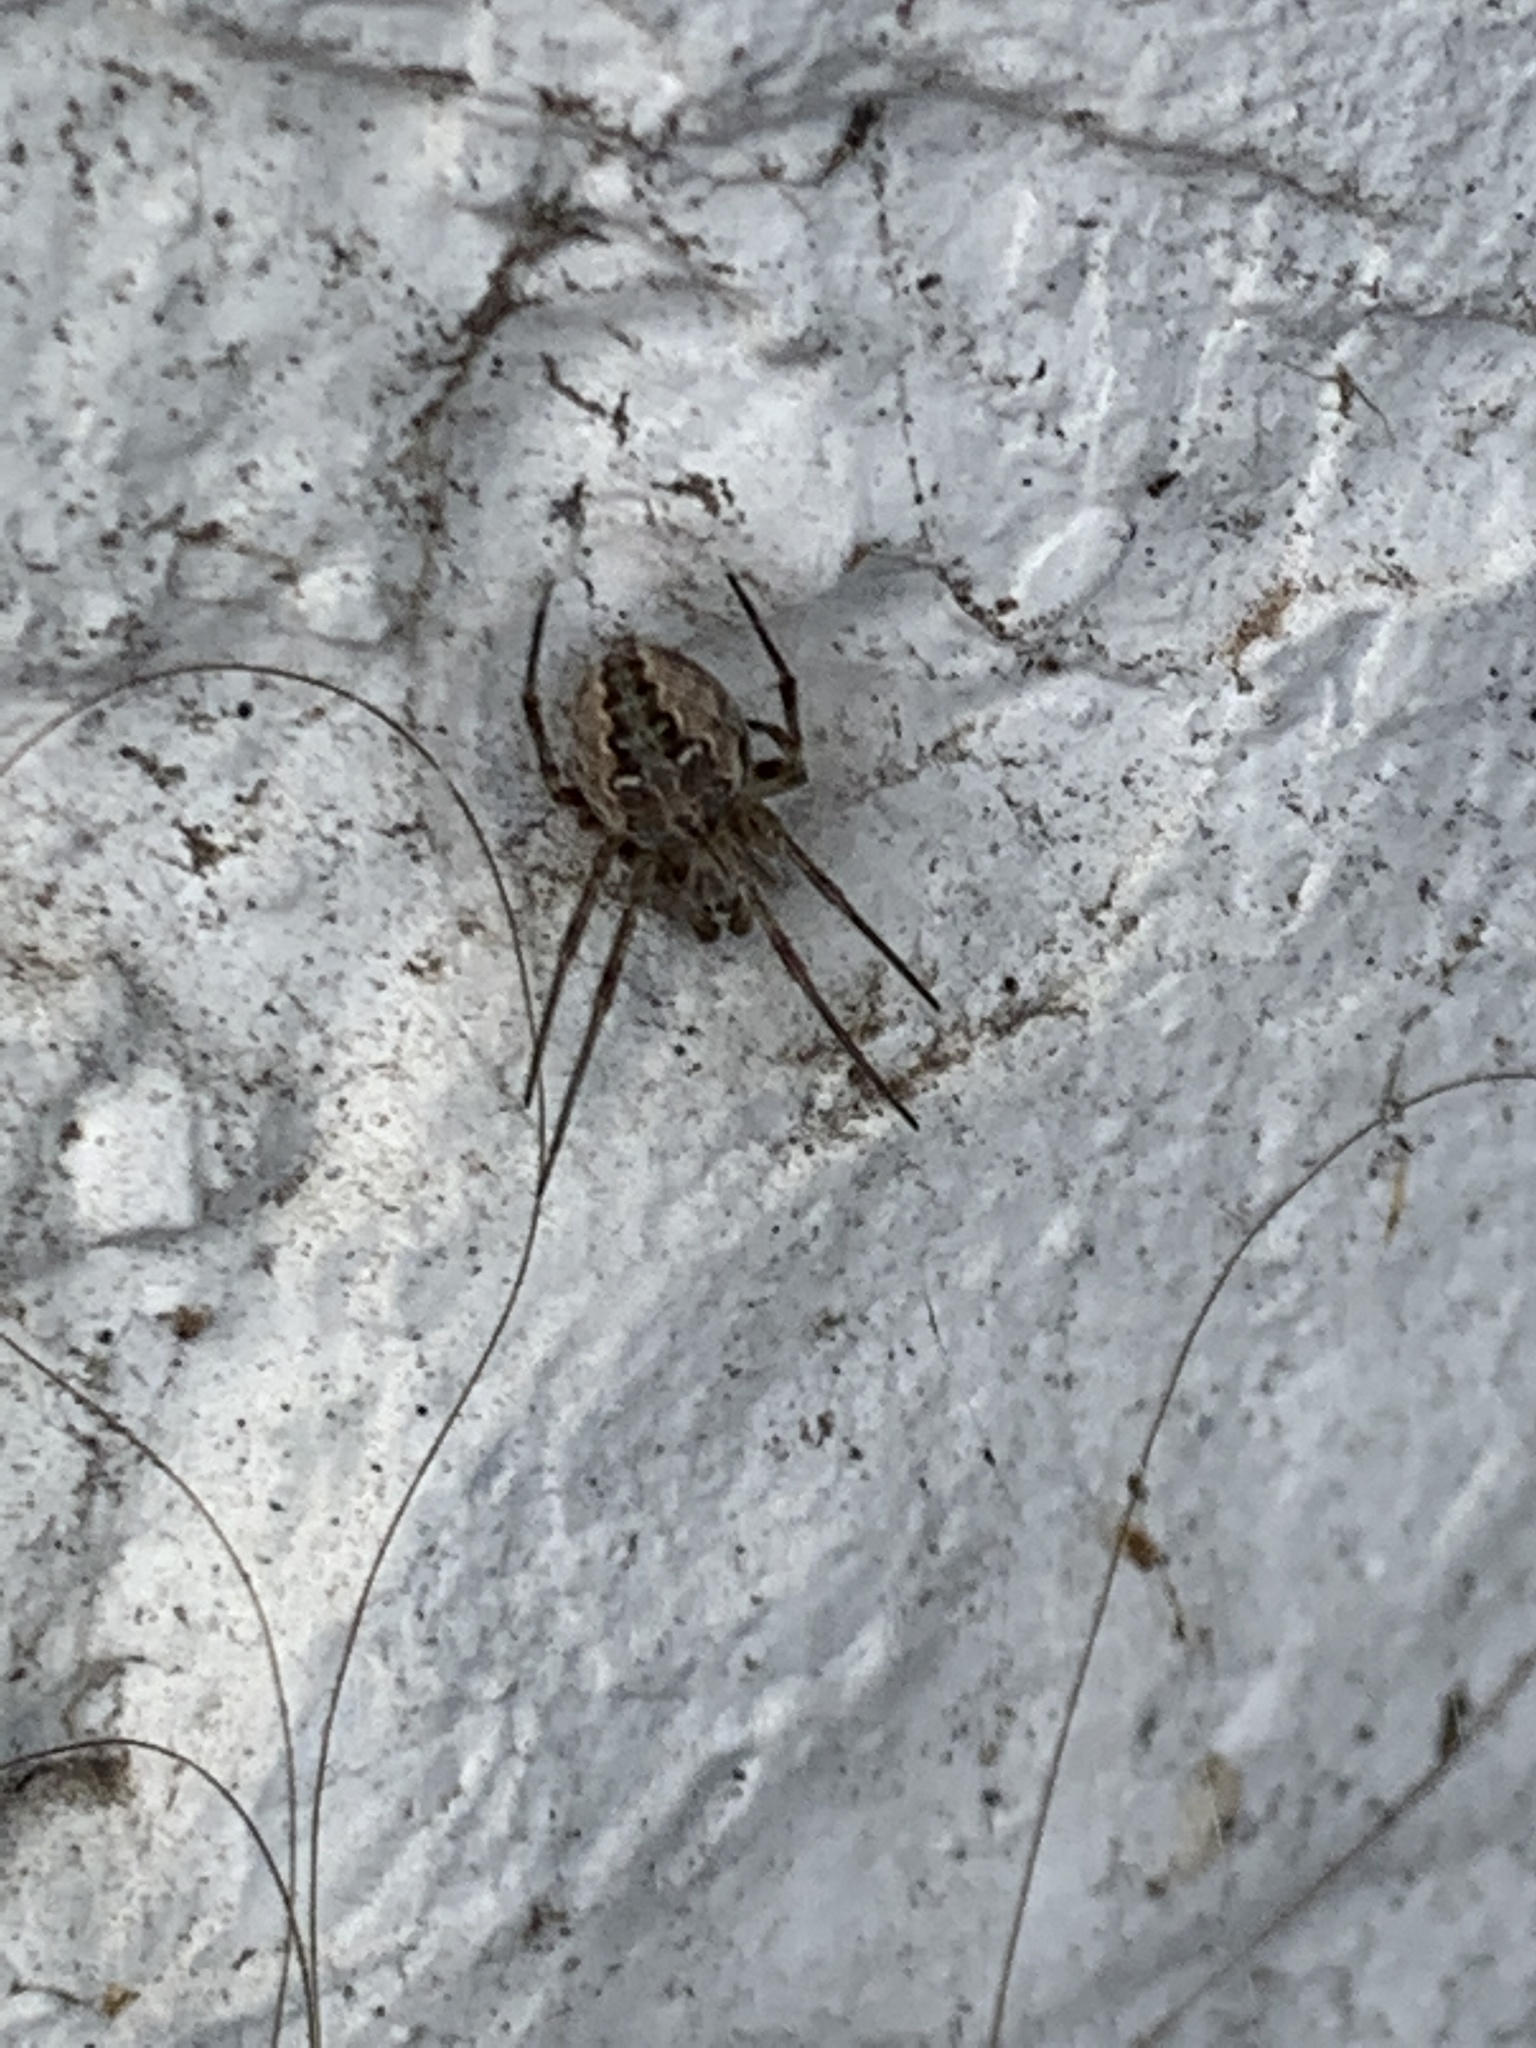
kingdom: Animalia
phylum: Arthropoda
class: Arachnida
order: Araneae
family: Araneidae
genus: Metepeira
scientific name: Metepeira
